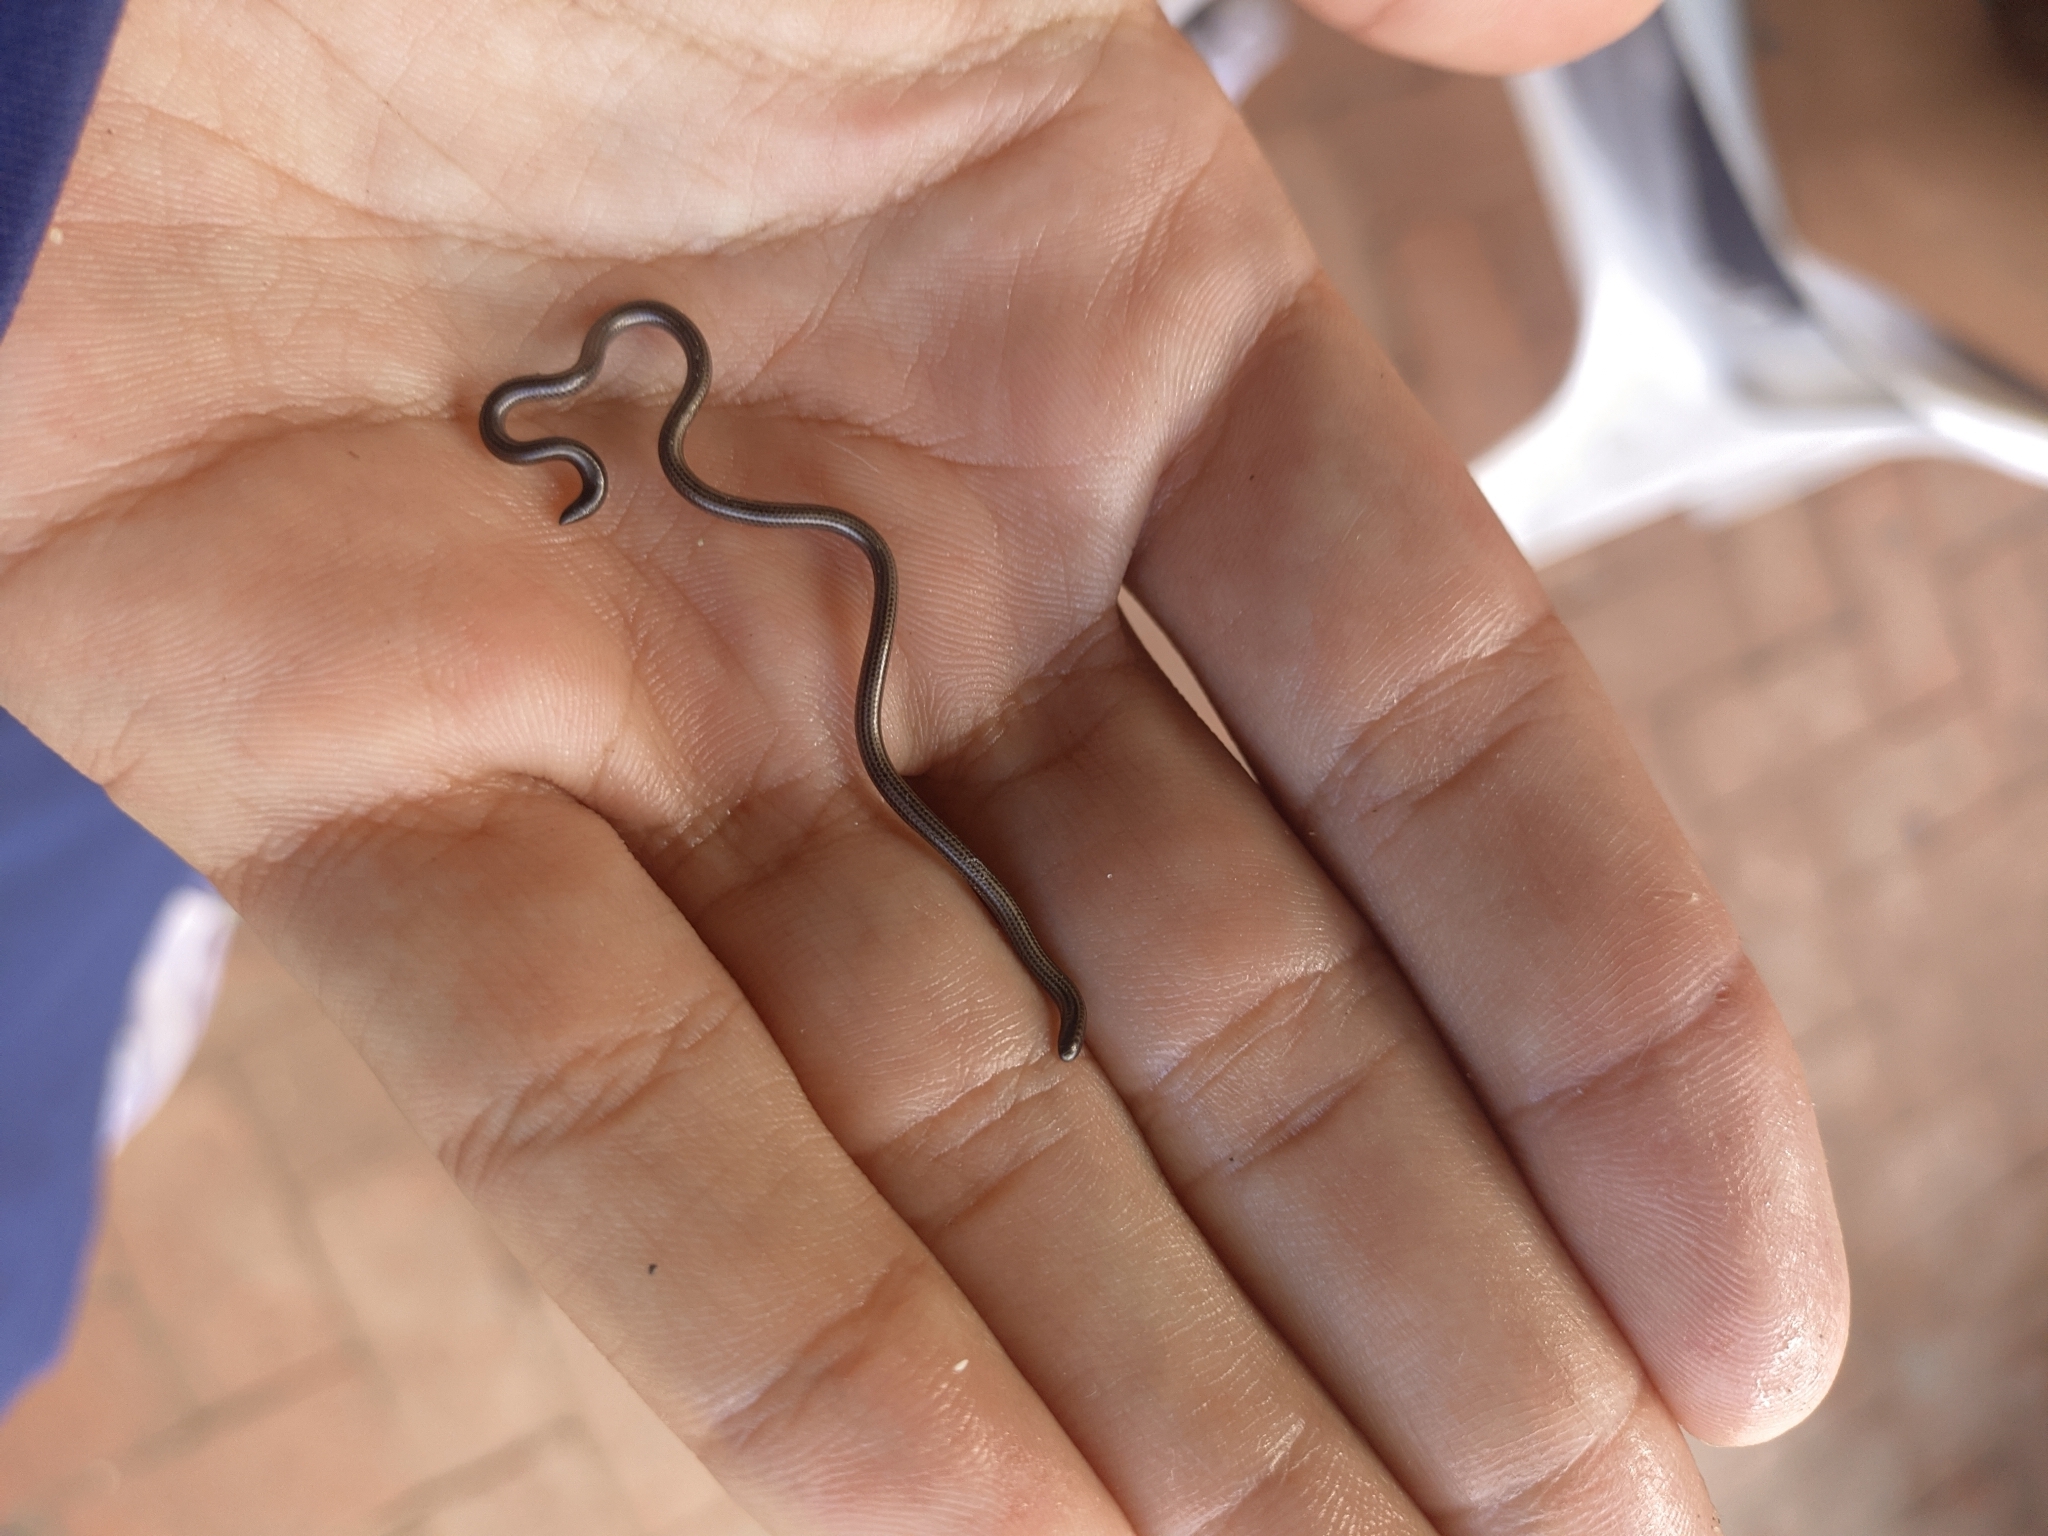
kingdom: Animalia
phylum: Chordata
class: Squamata
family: Leptotyphlopidae
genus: Epictia
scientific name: Epictia goudotii
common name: Black blind snake
